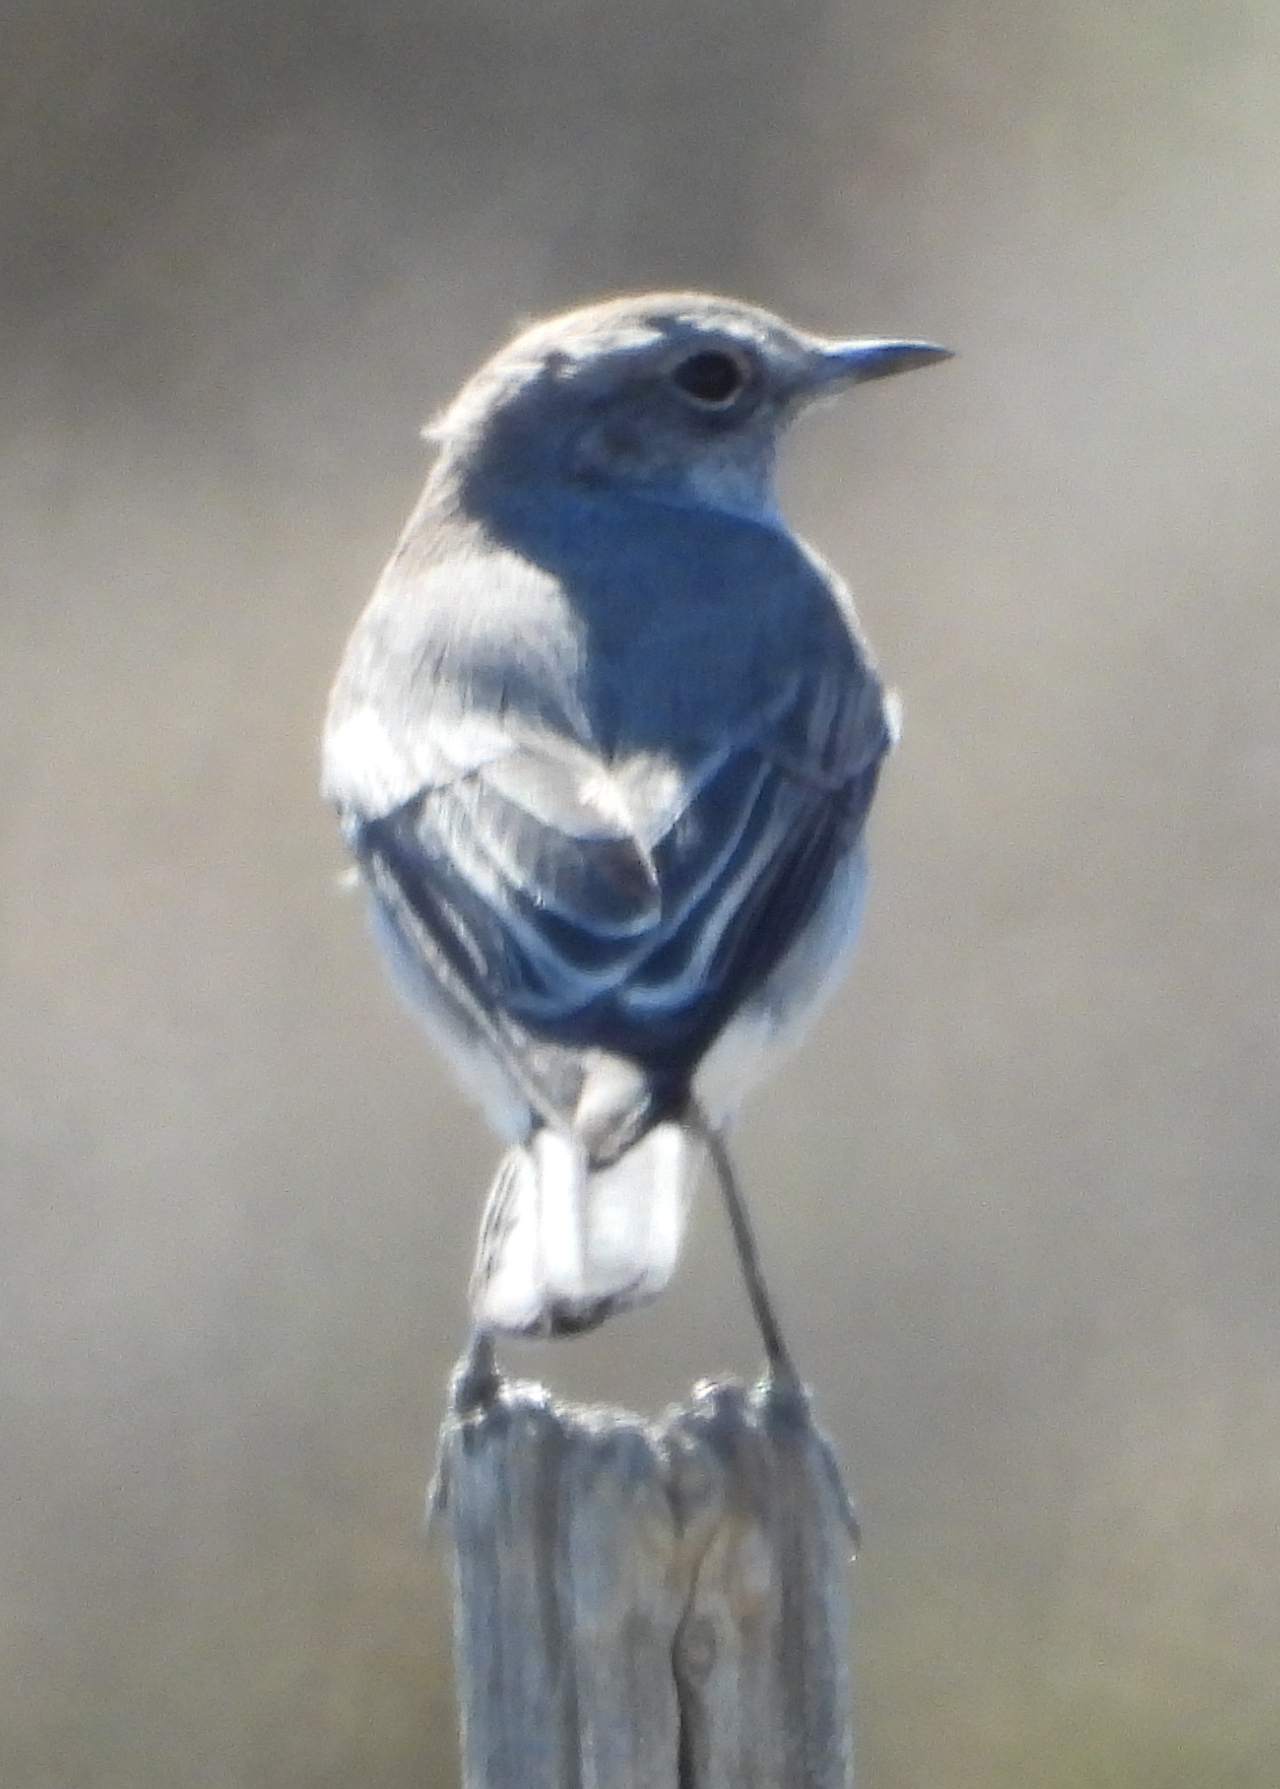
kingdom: Animalia
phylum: Chordata
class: Aves
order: Passeriformes
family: Muscicapidae
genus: Emarginata
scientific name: Emarginata schlegelii
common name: Karoo chat
